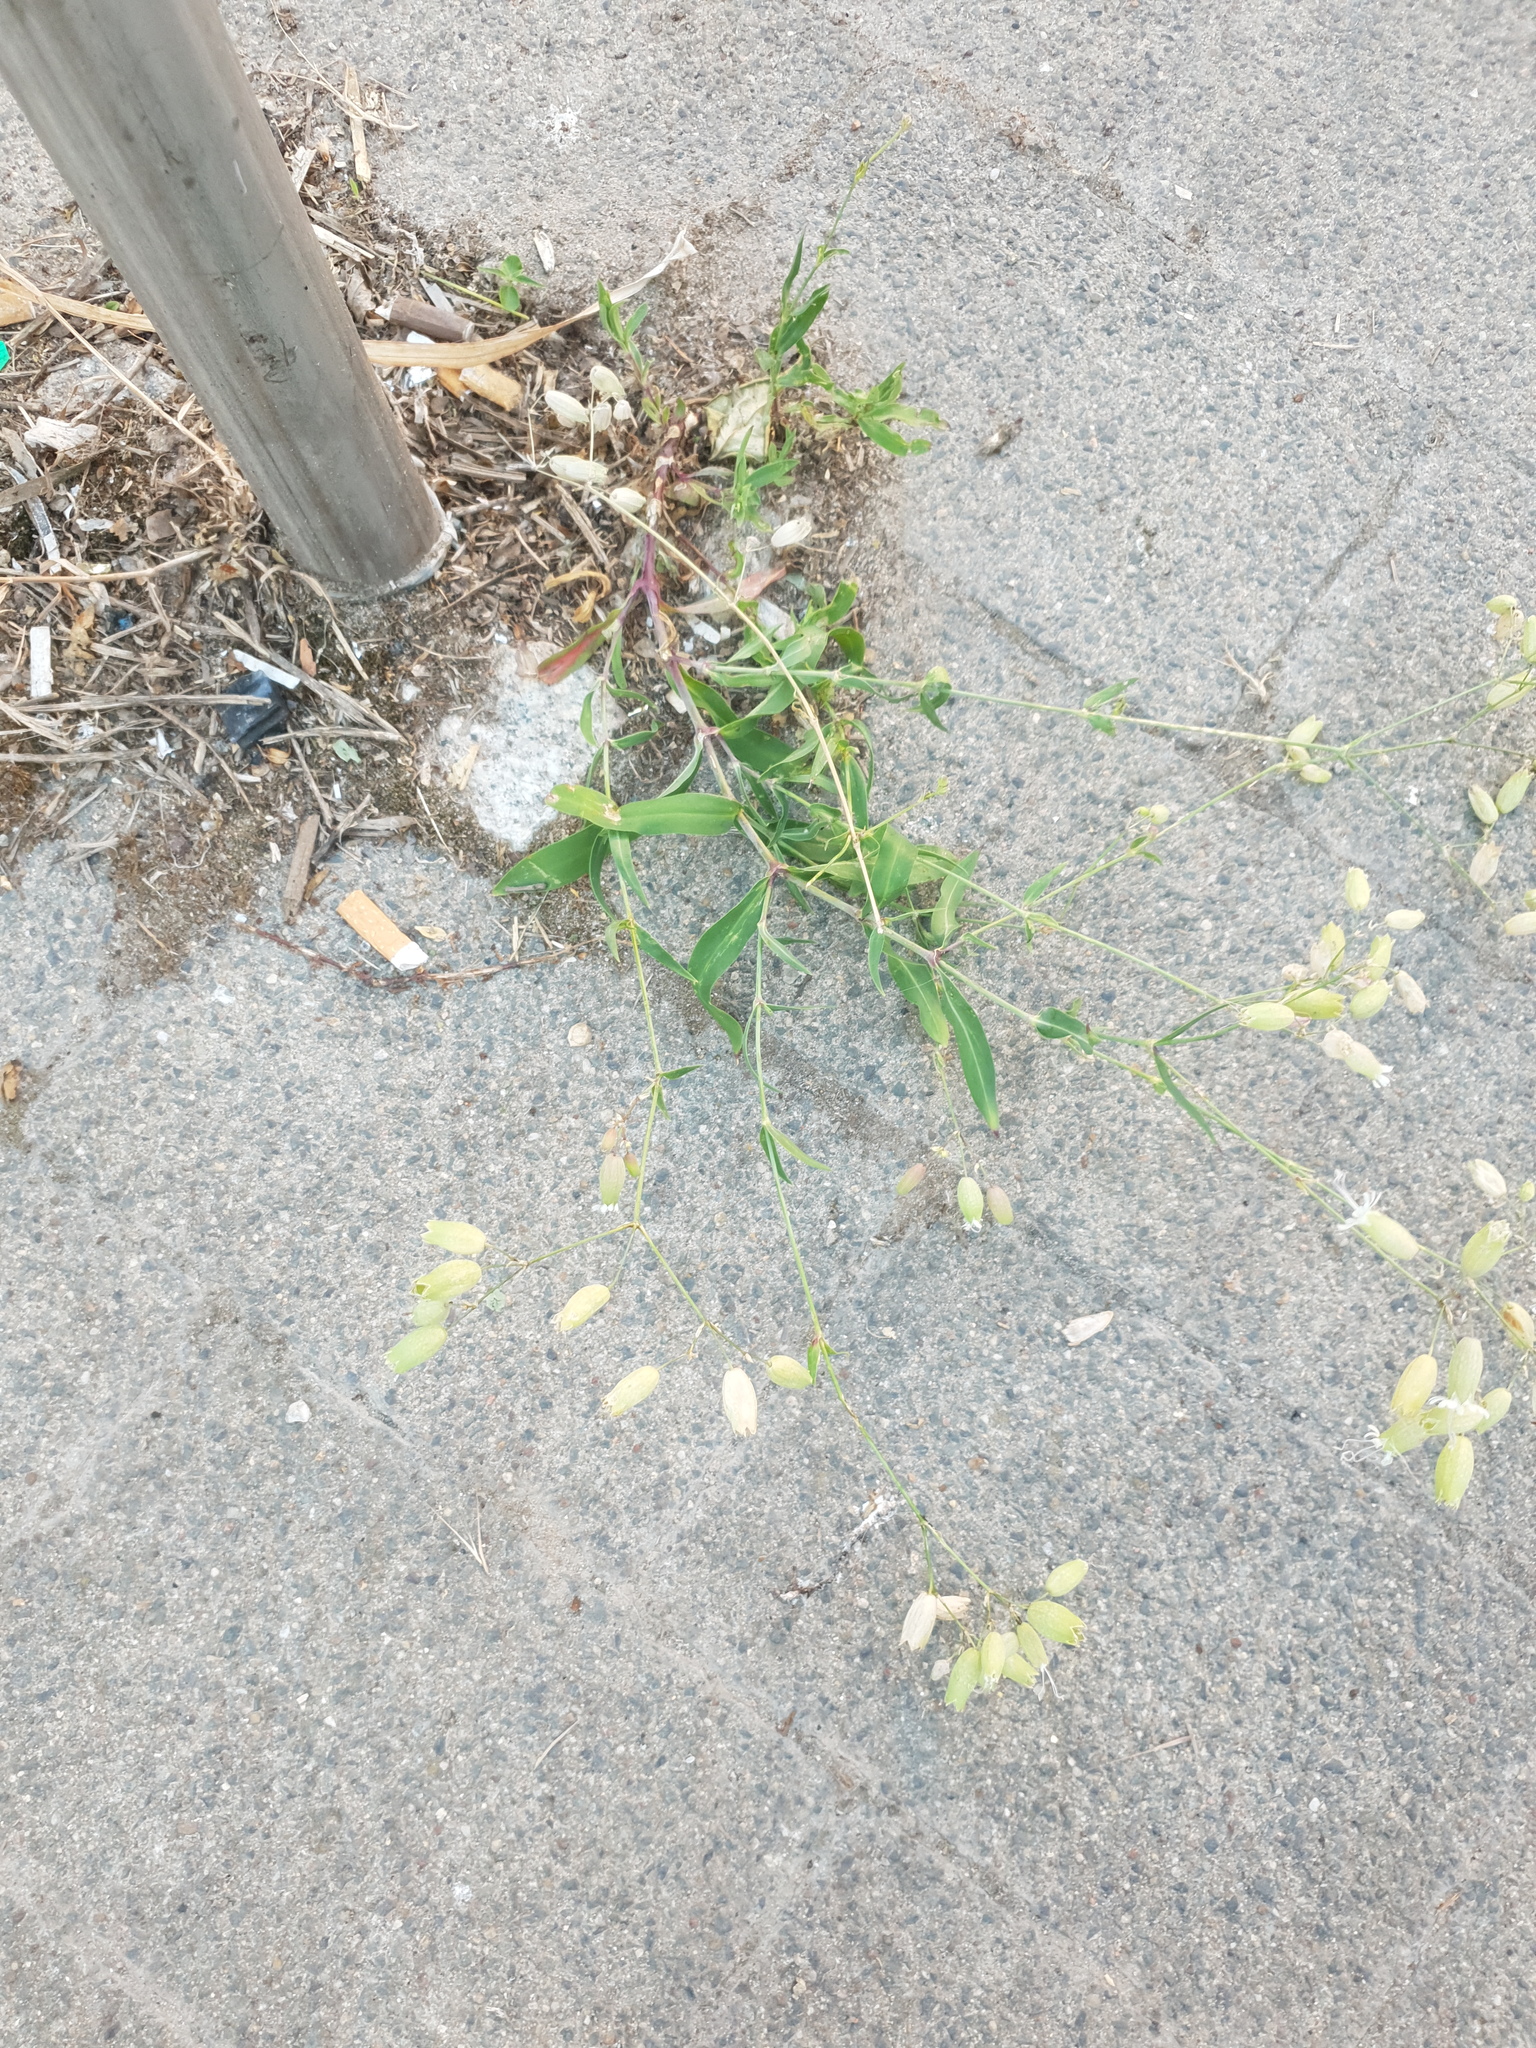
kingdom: Plantae
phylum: Tracheophyta
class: Magnoliopsida
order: Caryophyllales
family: Caryophyllaceae
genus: Silene
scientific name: Silene vulgaris
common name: Bladder campion
